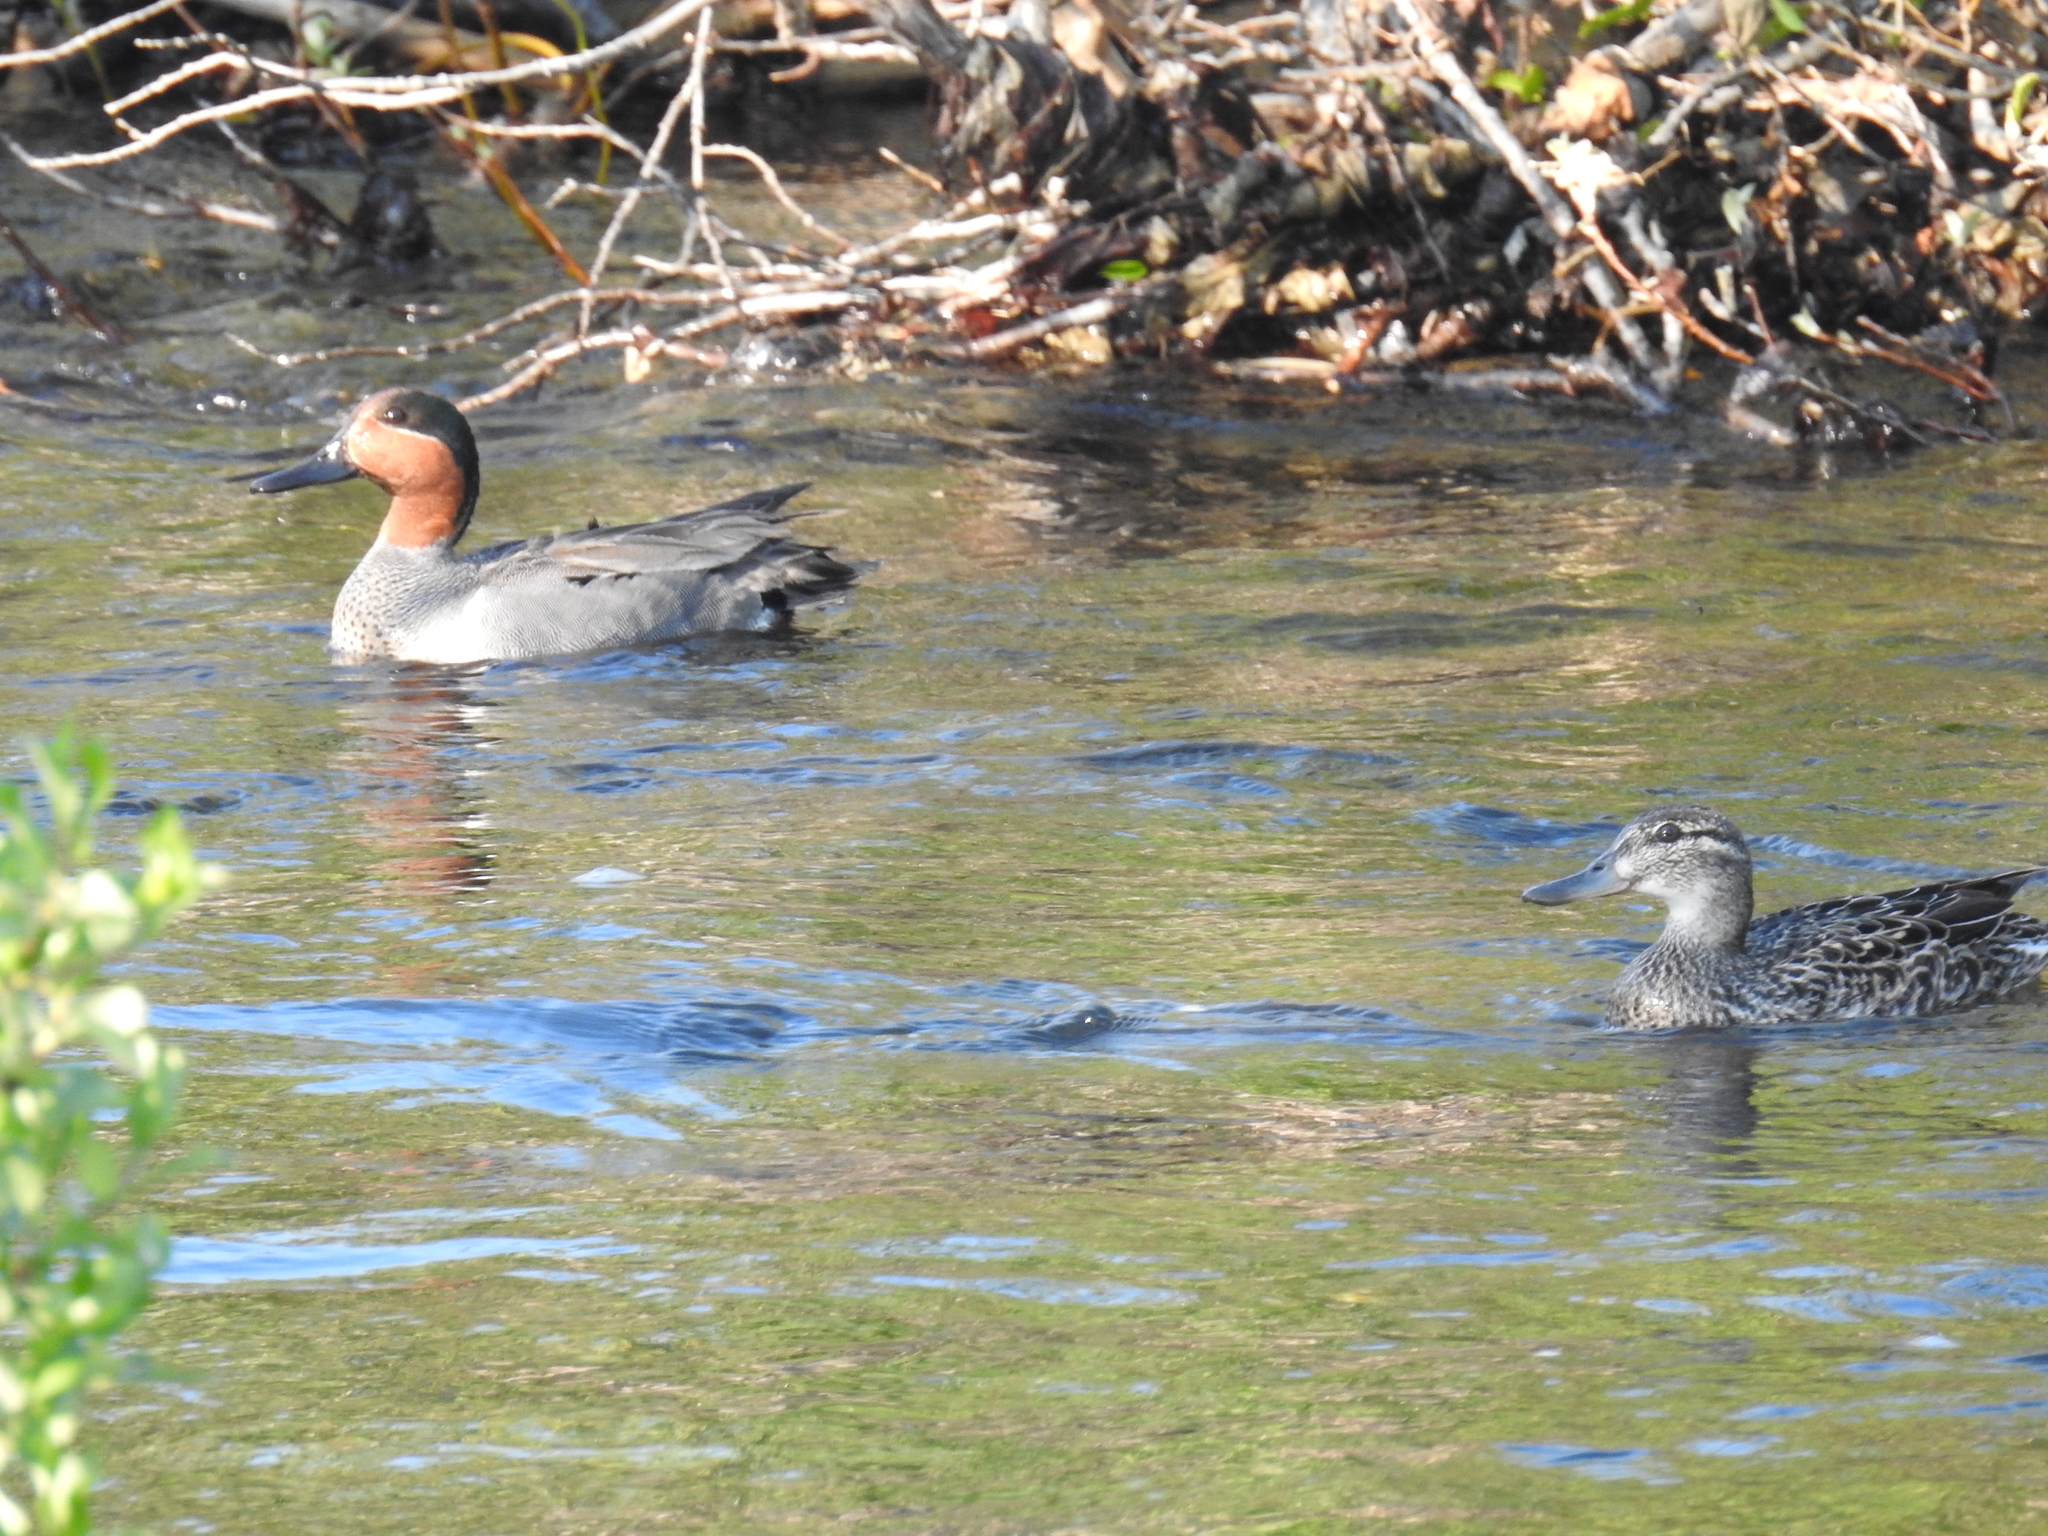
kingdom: Animalia
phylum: Chordata
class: Aves
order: Anseriformes
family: Anatidae
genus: Anas
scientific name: Anas crecca
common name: Eurasian teal
